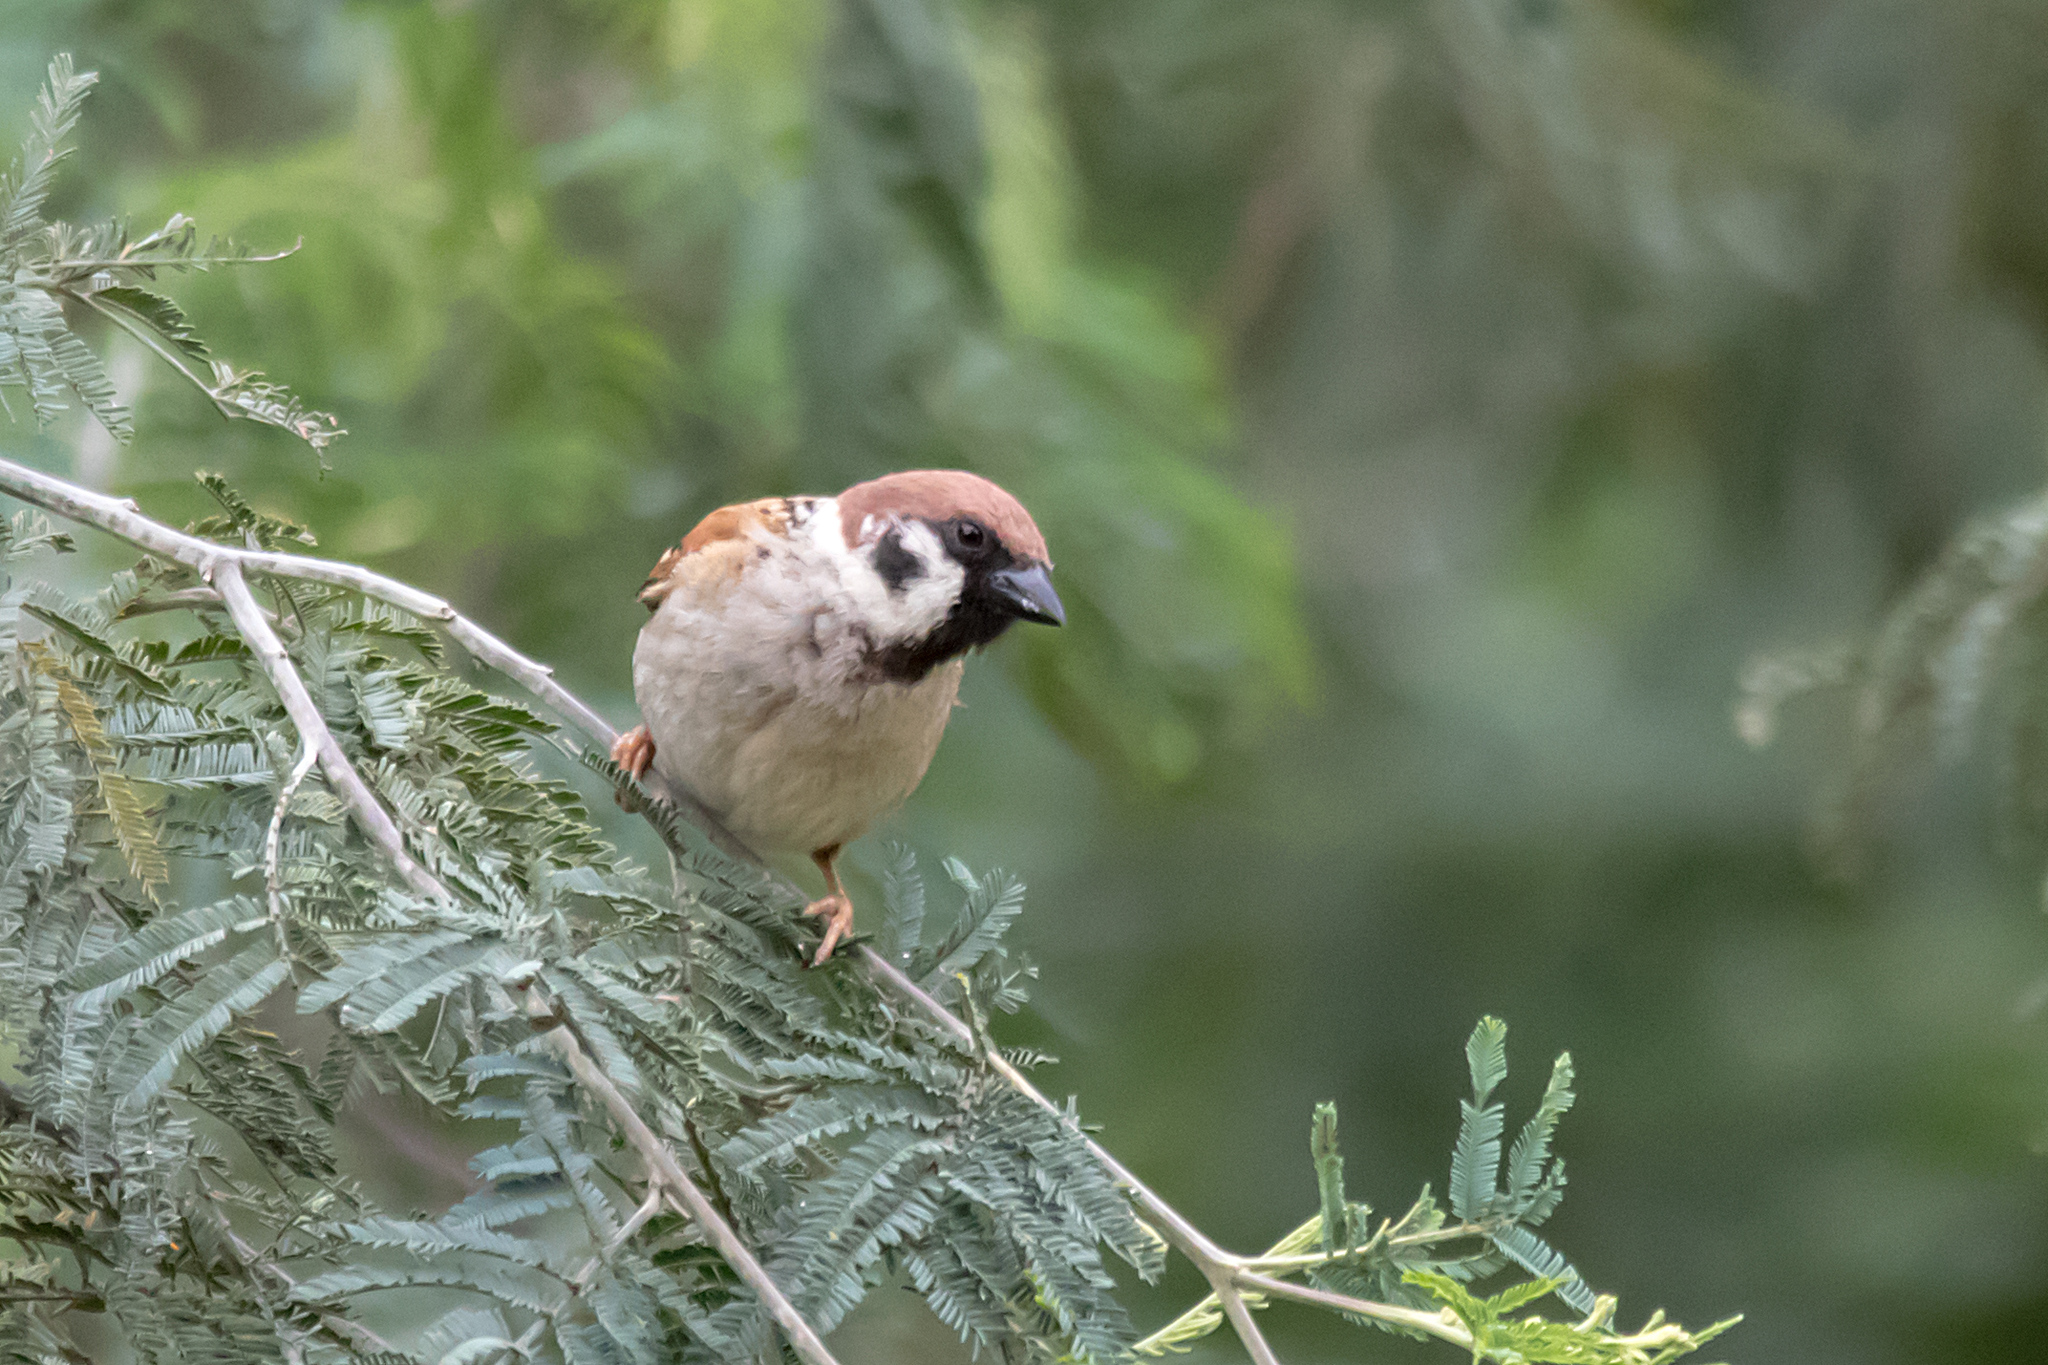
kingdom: Animalia
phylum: Chordata
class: Aves
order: Passeriformes
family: Passeridae
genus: Passer
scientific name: Passer montanus
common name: Eurasian tree sparrow
